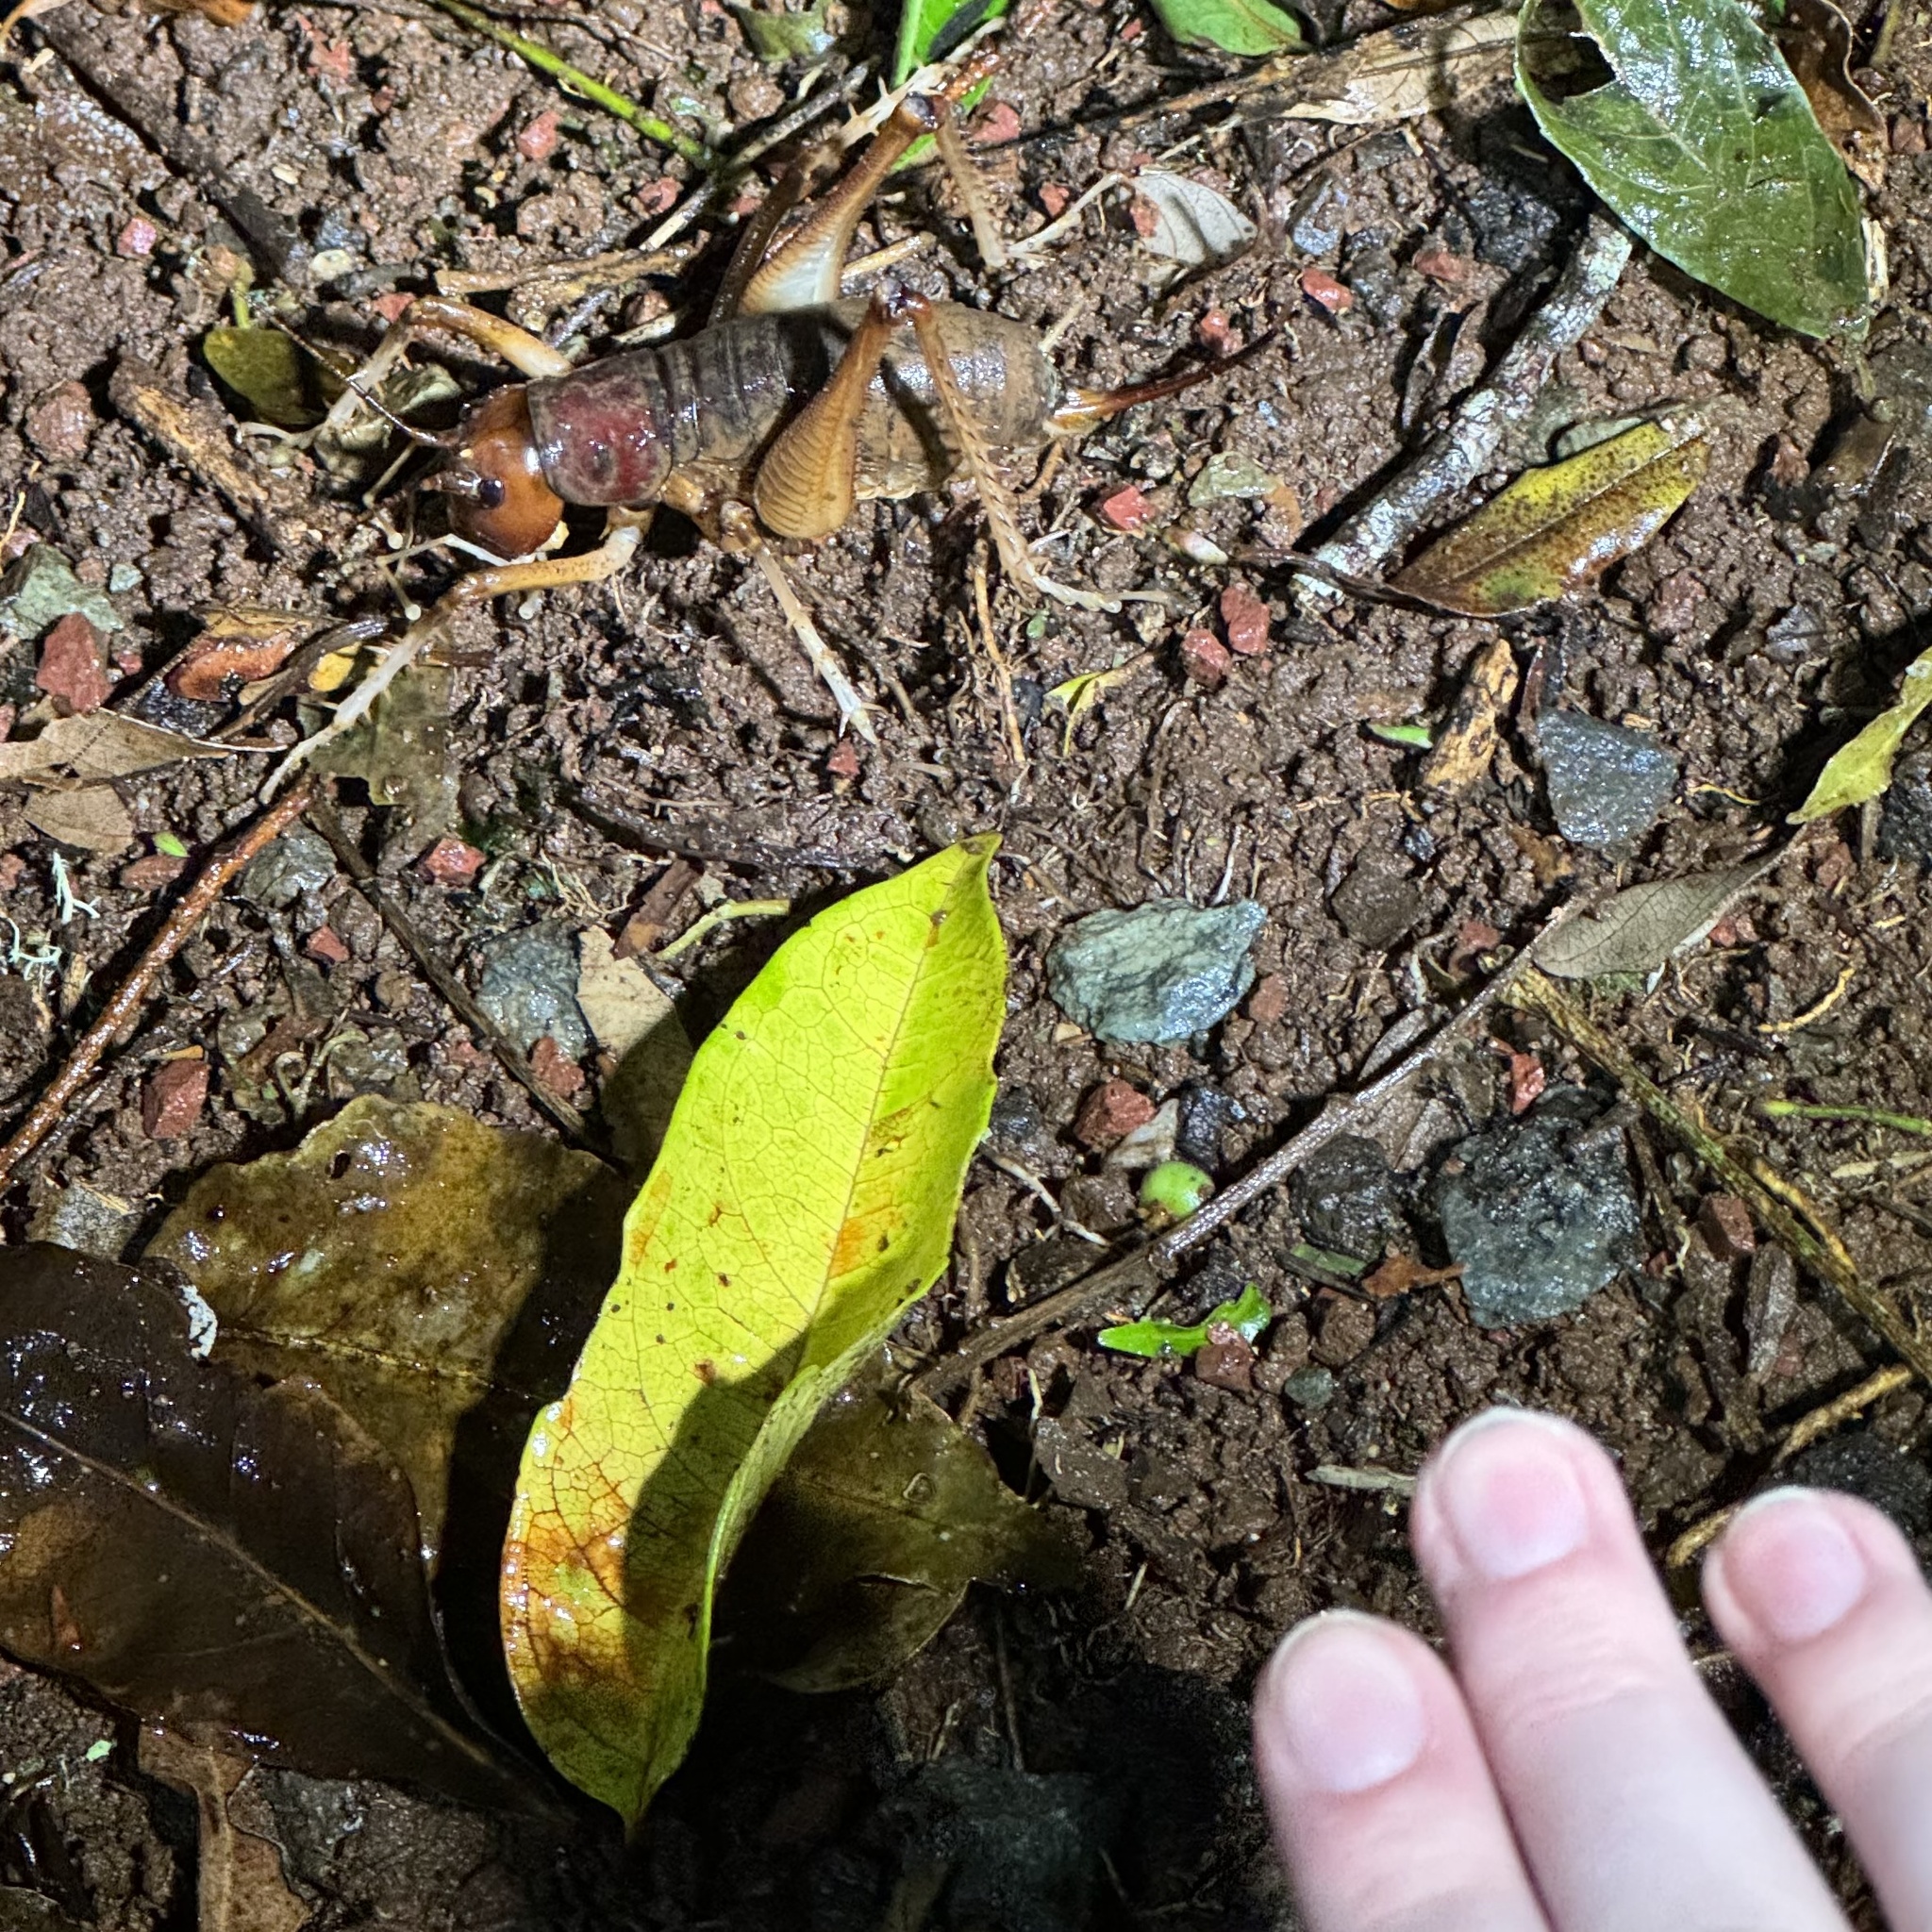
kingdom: Animalia
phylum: Arthropoda
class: Insecta
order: Orthoptera
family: Anostostomatidae
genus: Anostostoma
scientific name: Anostostoma australasiae
